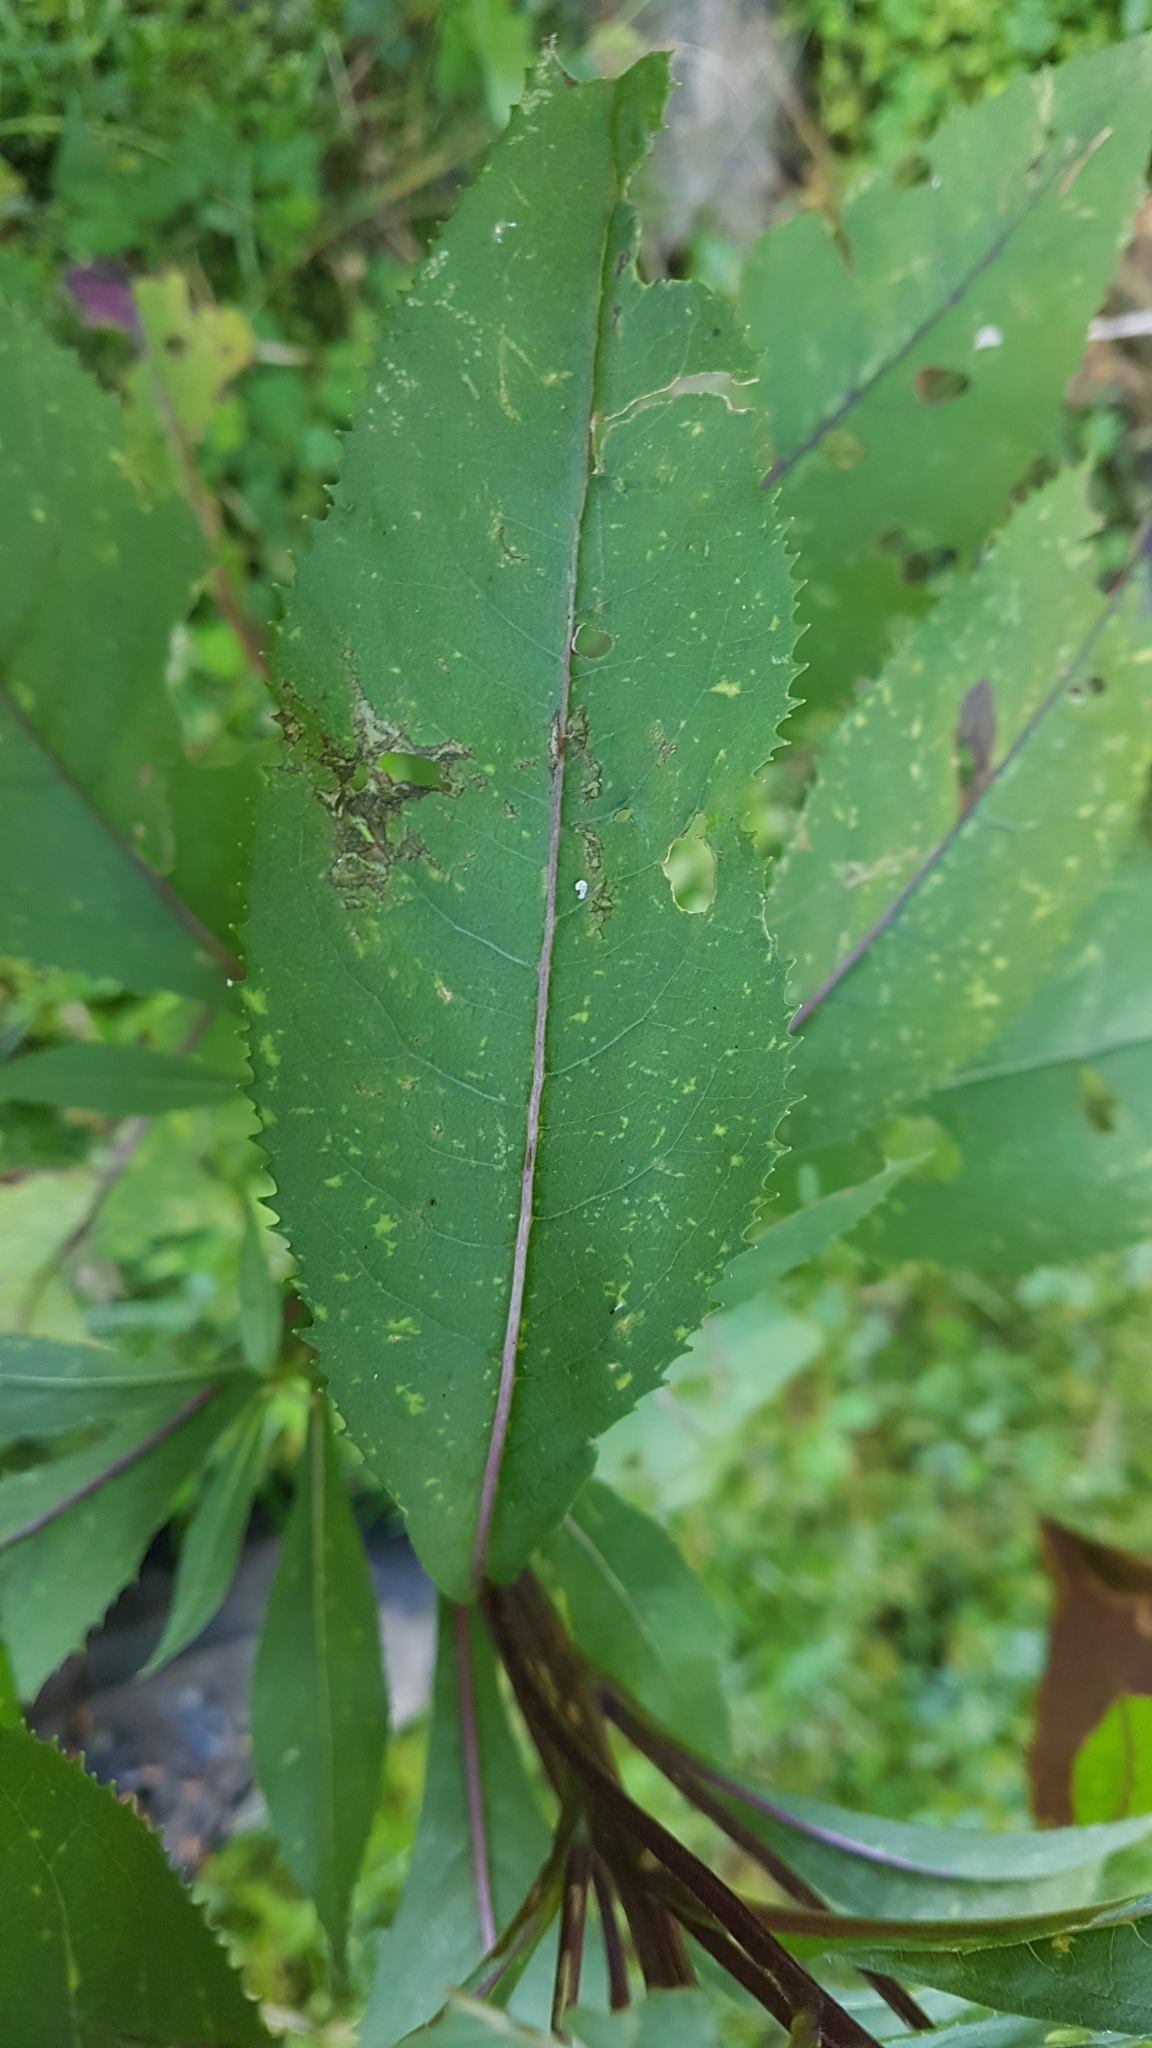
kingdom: Plantae
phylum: Tracheophyta
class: Magnoliopsida
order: Asterales
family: Asteraceae
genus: Senecio
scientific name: Senecio ovatus
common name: Wood ragwort
